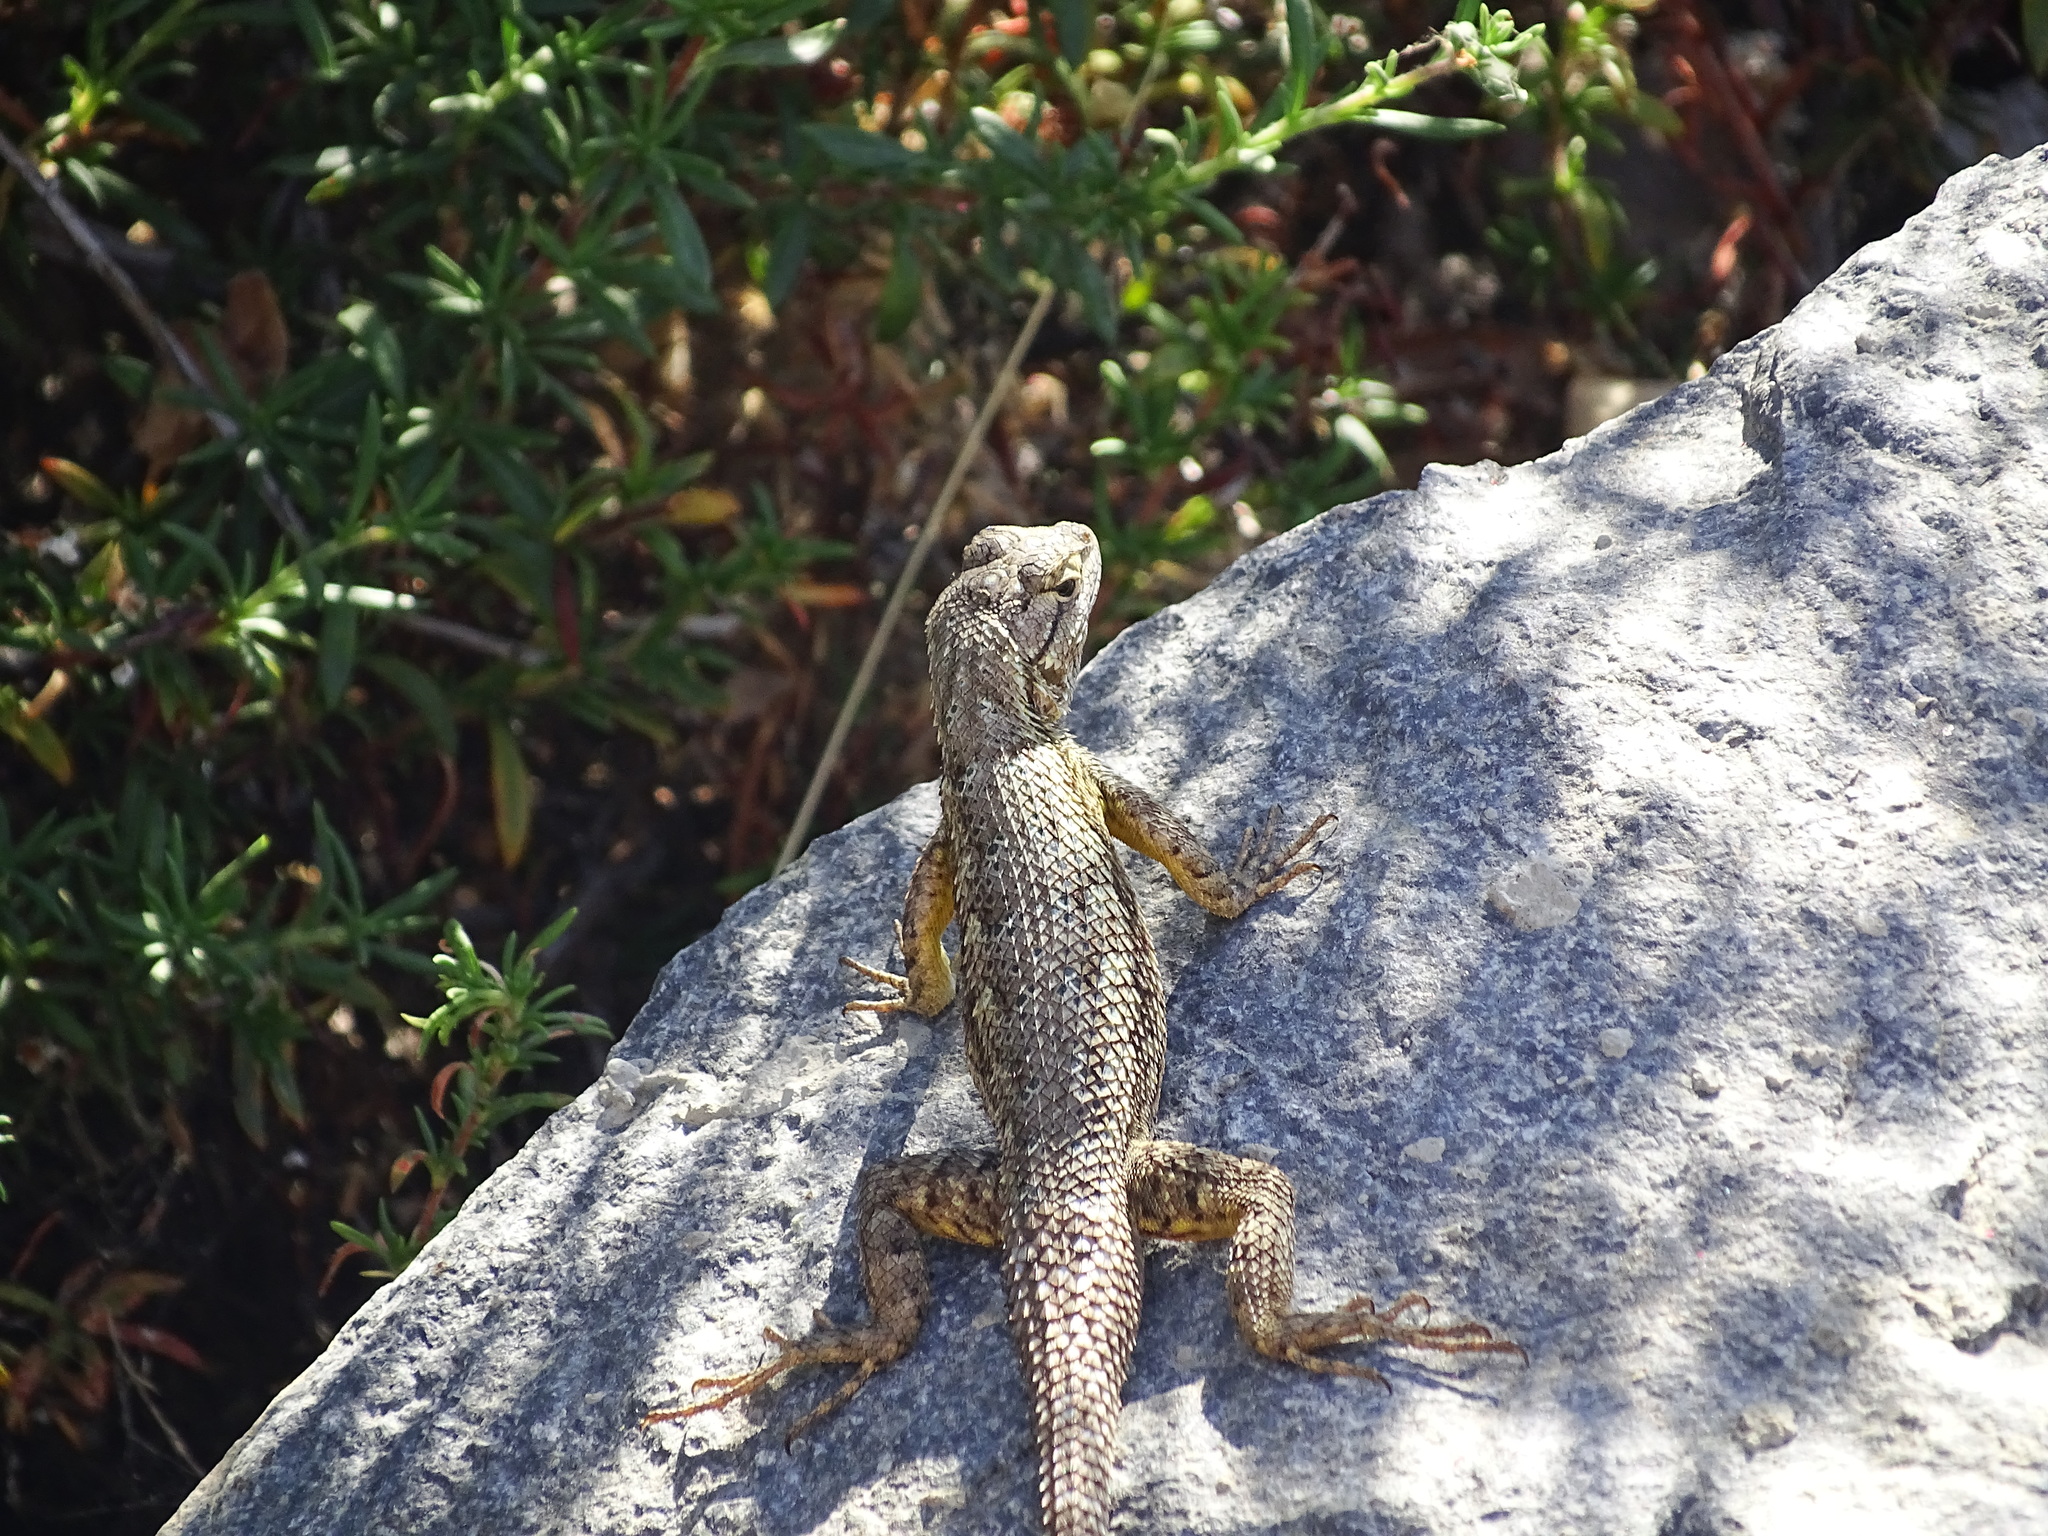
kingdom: Animalia
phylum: Chordata
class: Squamata
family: Phrynosomatidae
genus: Sceloporus
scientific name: Sceloporus occidentalis
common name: Western fence lizard
